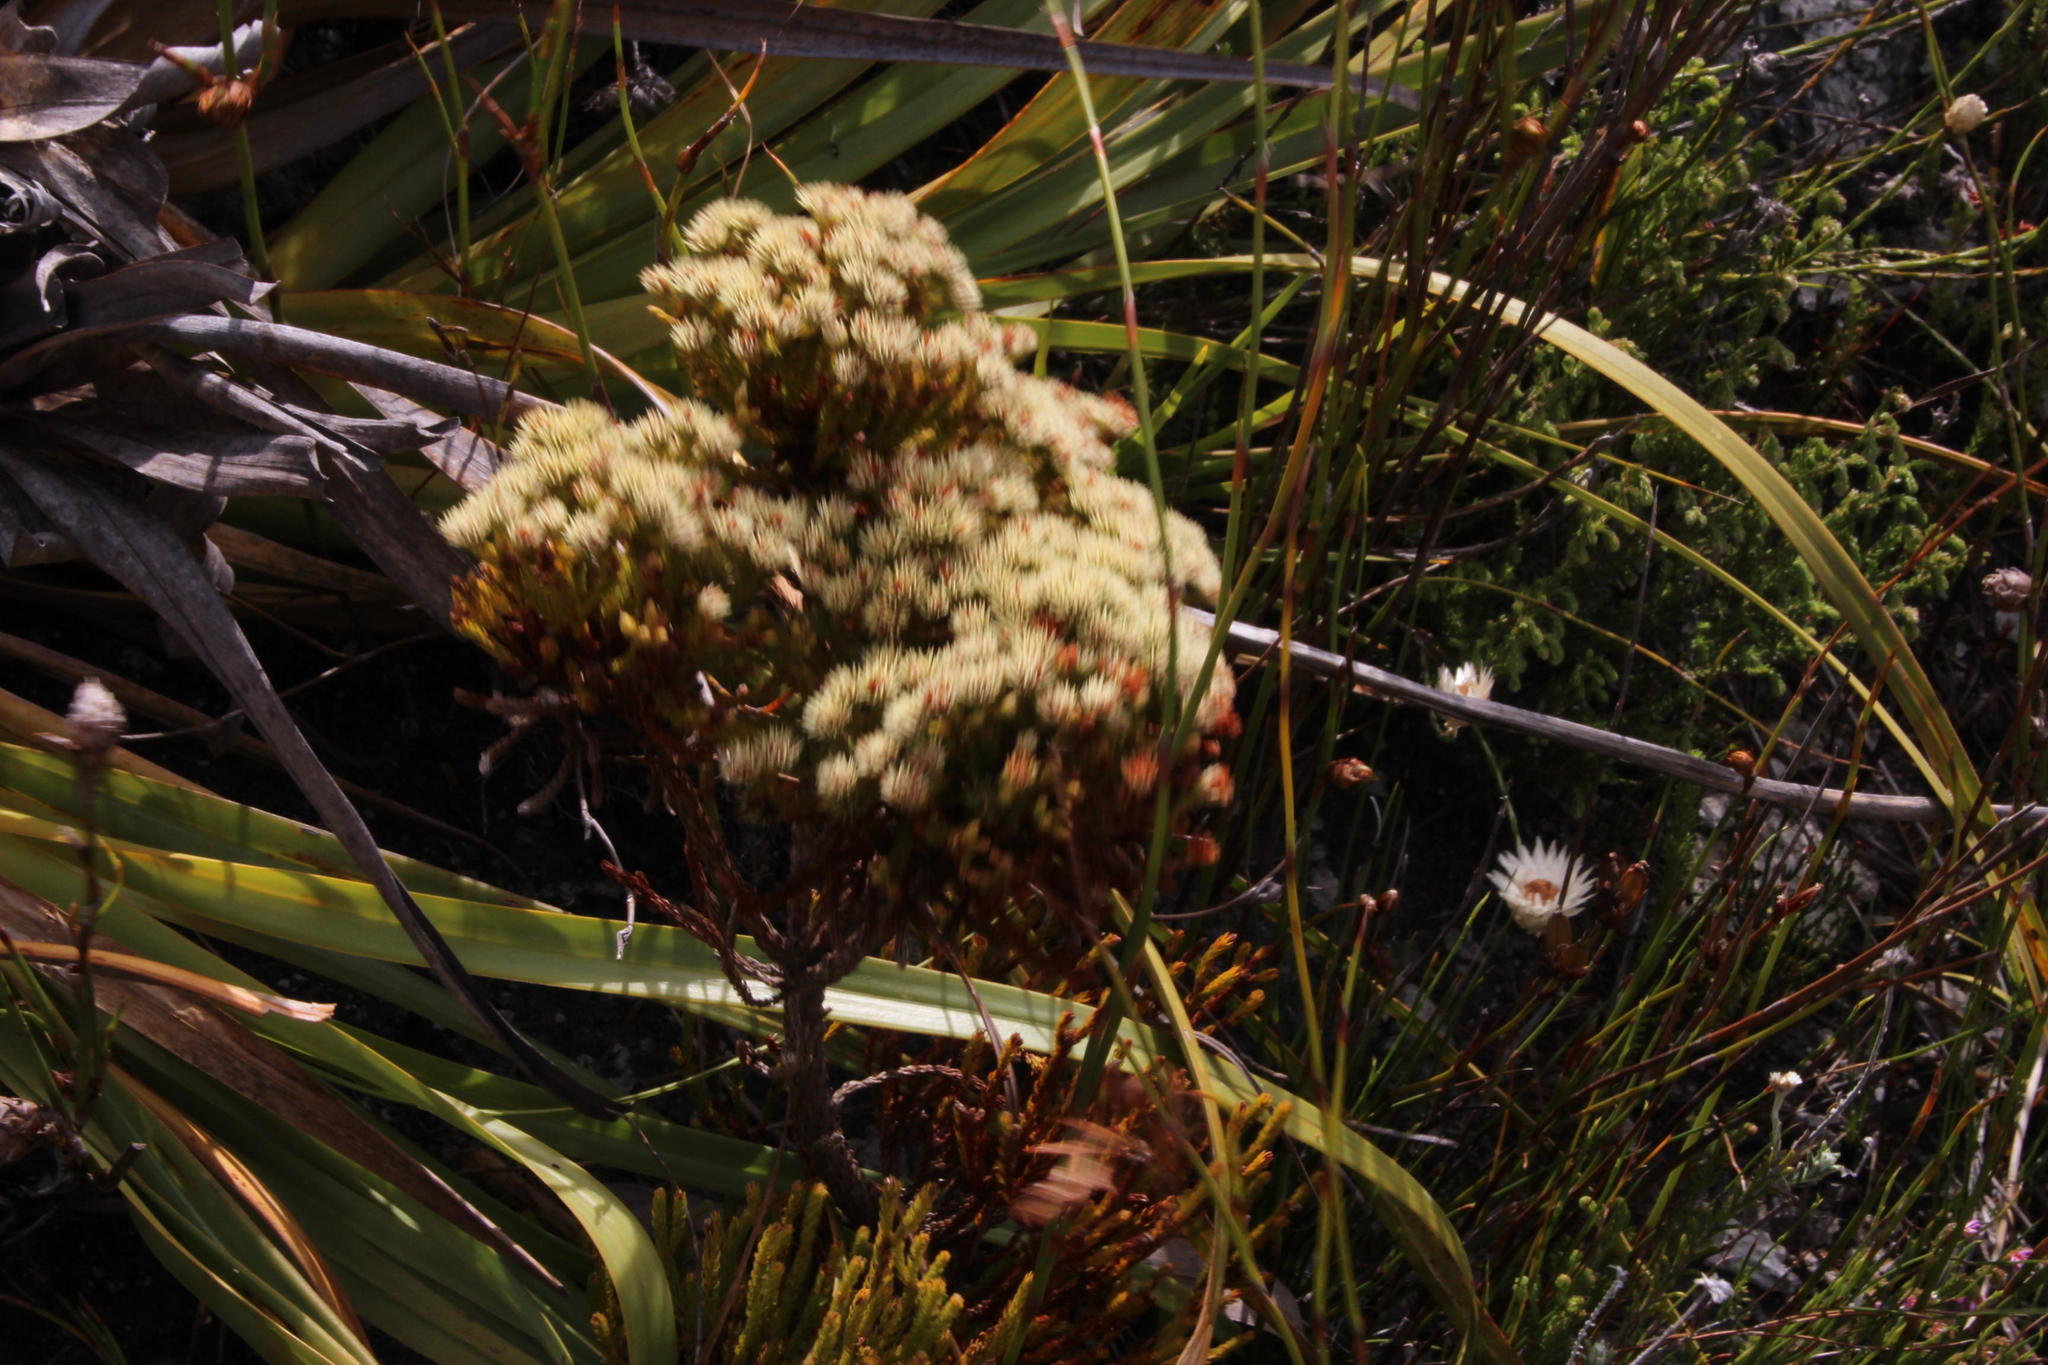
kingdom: Plantae
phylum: Tracheophyta
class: Magnoliopsida
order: Bruniales
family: Bruniaceae
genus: Brunia
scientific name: Brunia paleacea
